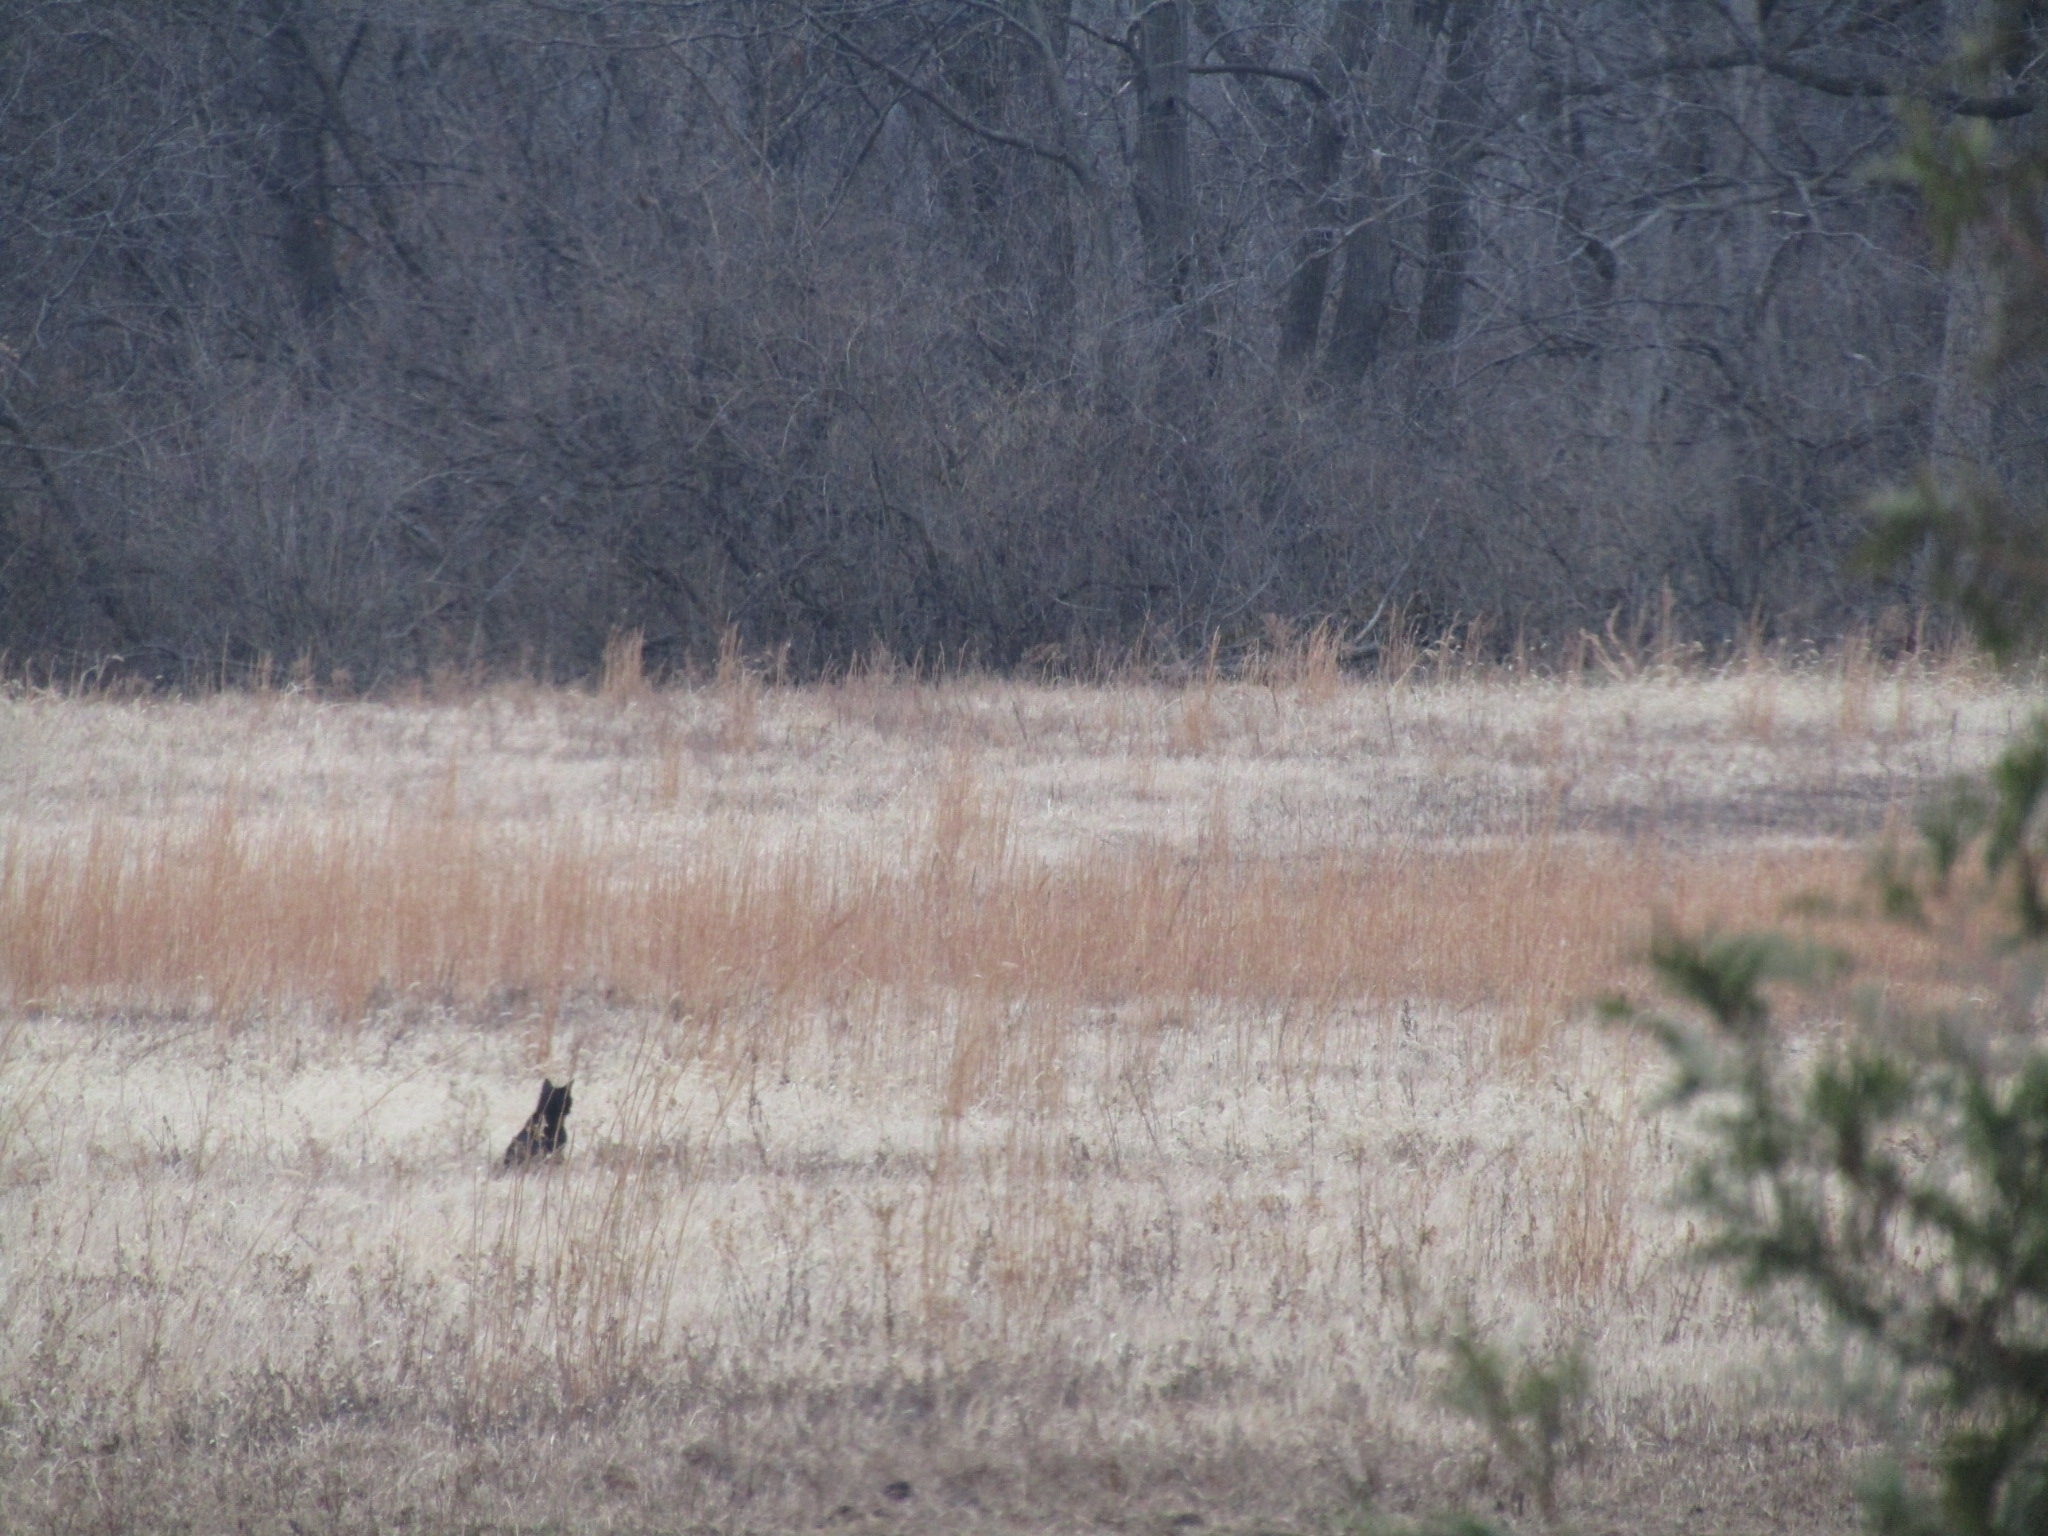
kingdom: Animalia
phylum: Chordata
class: Mammalia
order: Carnivora
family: Felidae
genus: Felis
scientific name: Felis catus
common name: Domestic cat
